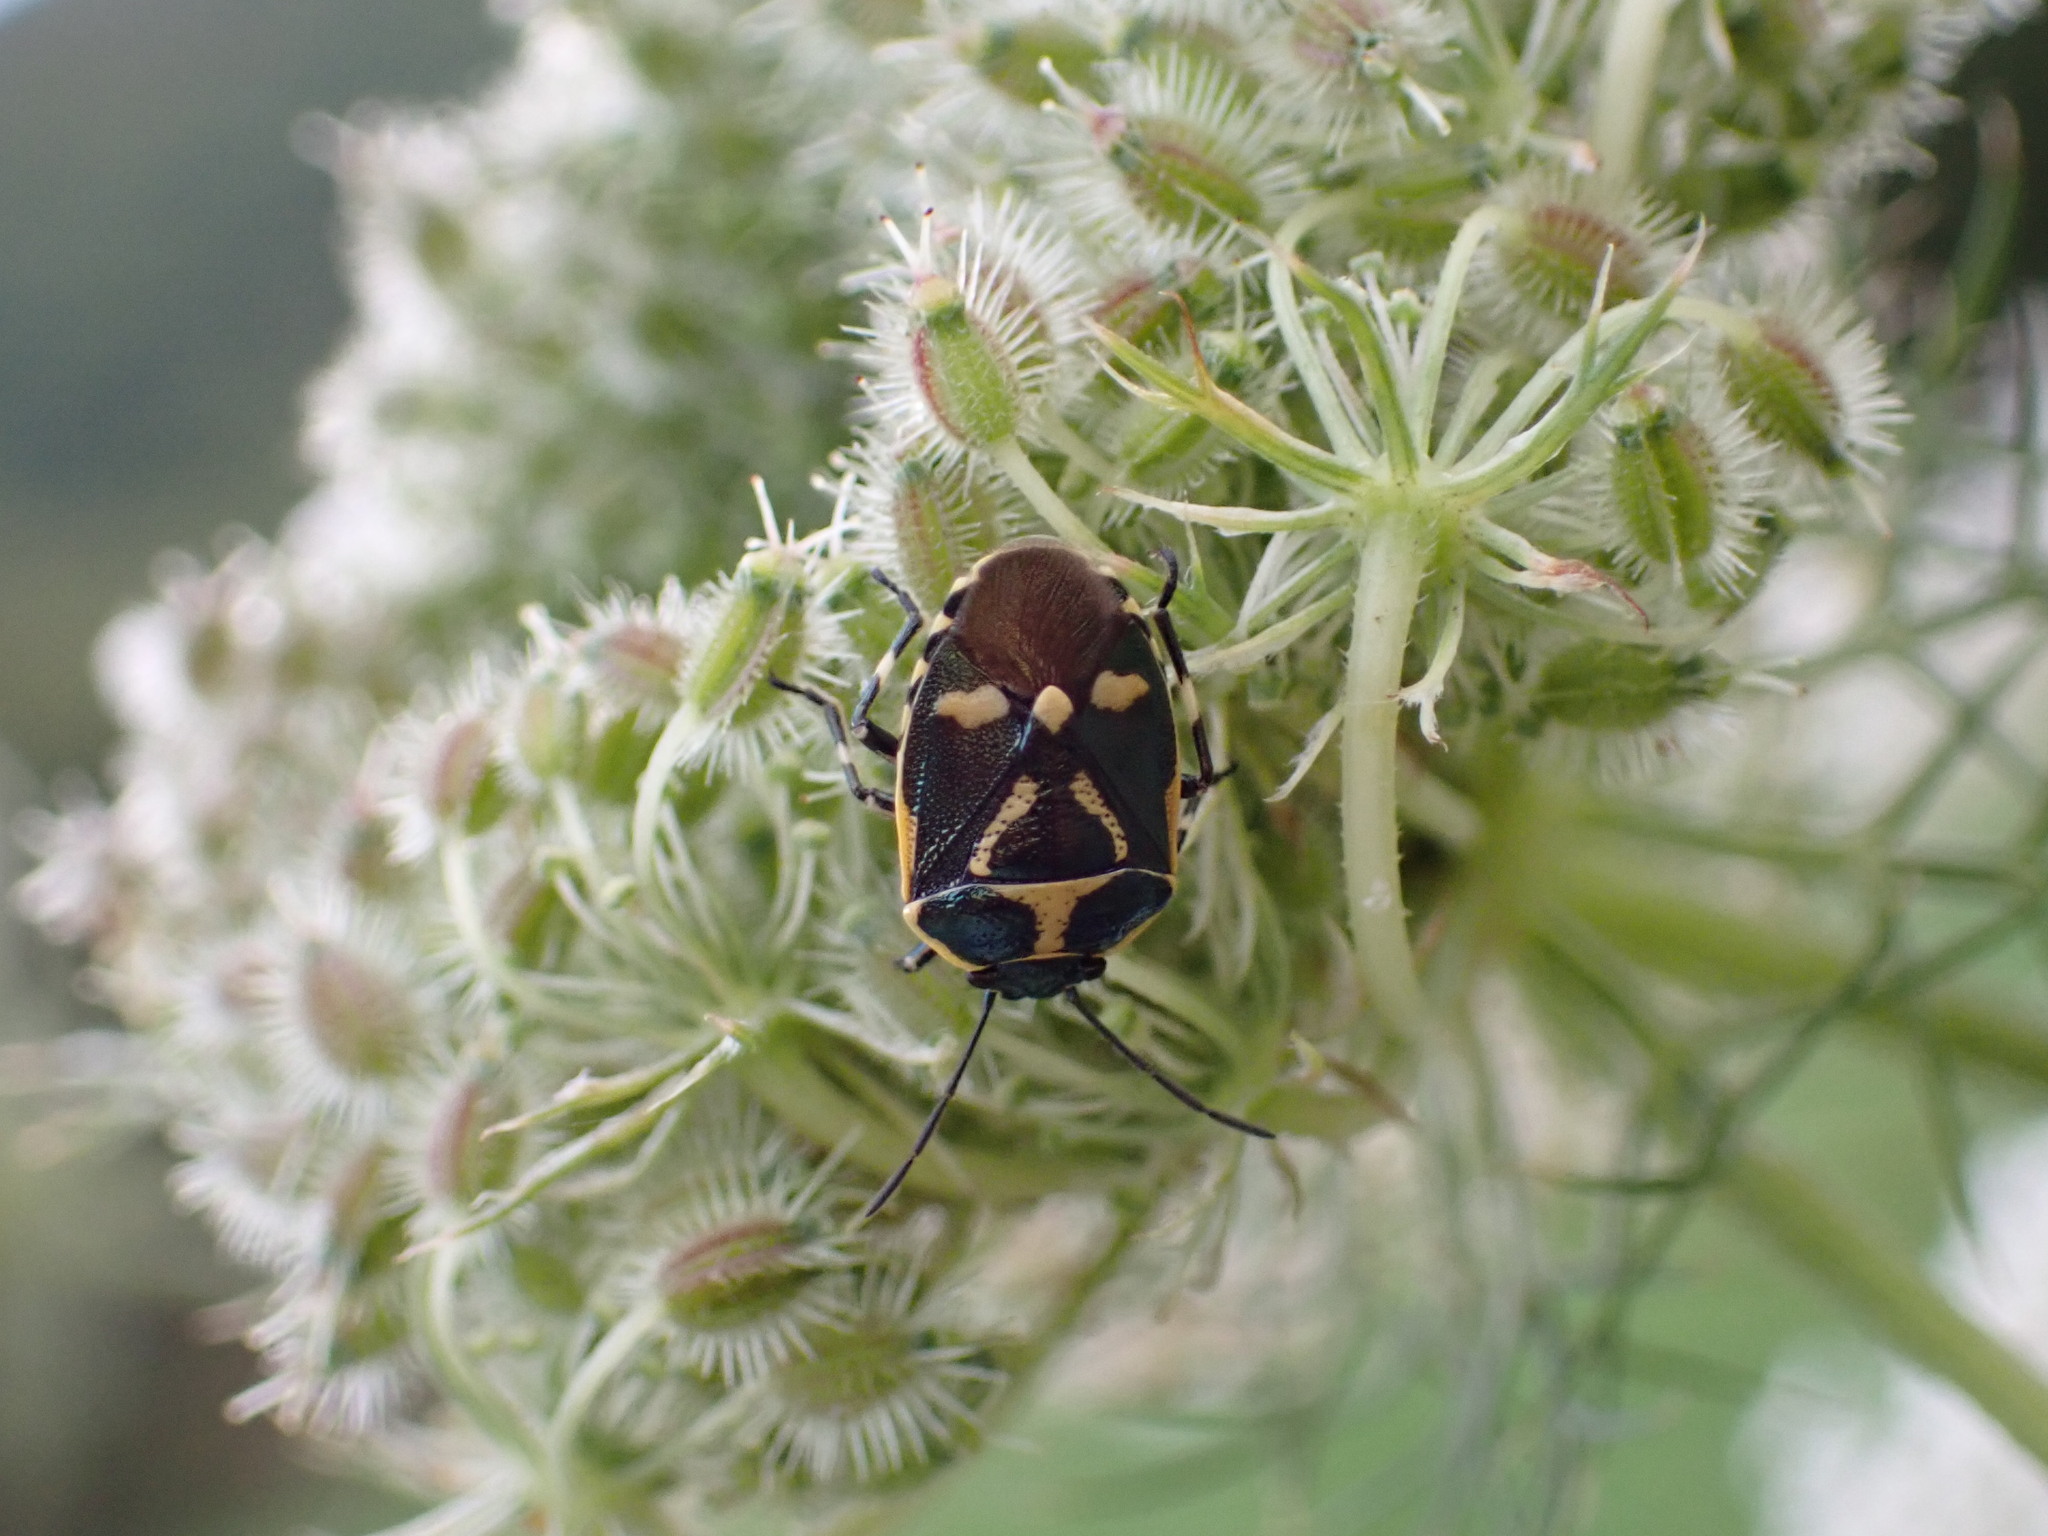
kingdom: Animalia
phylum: Arthropoda
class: Insecta
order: Hemiptera
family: Pentatomidae
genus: Eurydema
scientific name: Eurydema oleracea
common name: Cabbage bug
